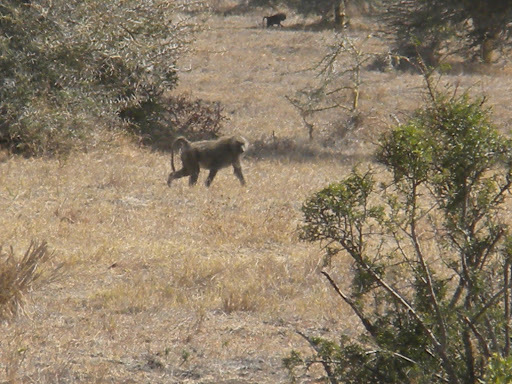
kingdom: Animalia
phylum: Chordata
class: Mammalia
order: Primates
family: Cercopithecidae
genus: Papio
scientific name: Papio anubis
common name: Olive baboon
